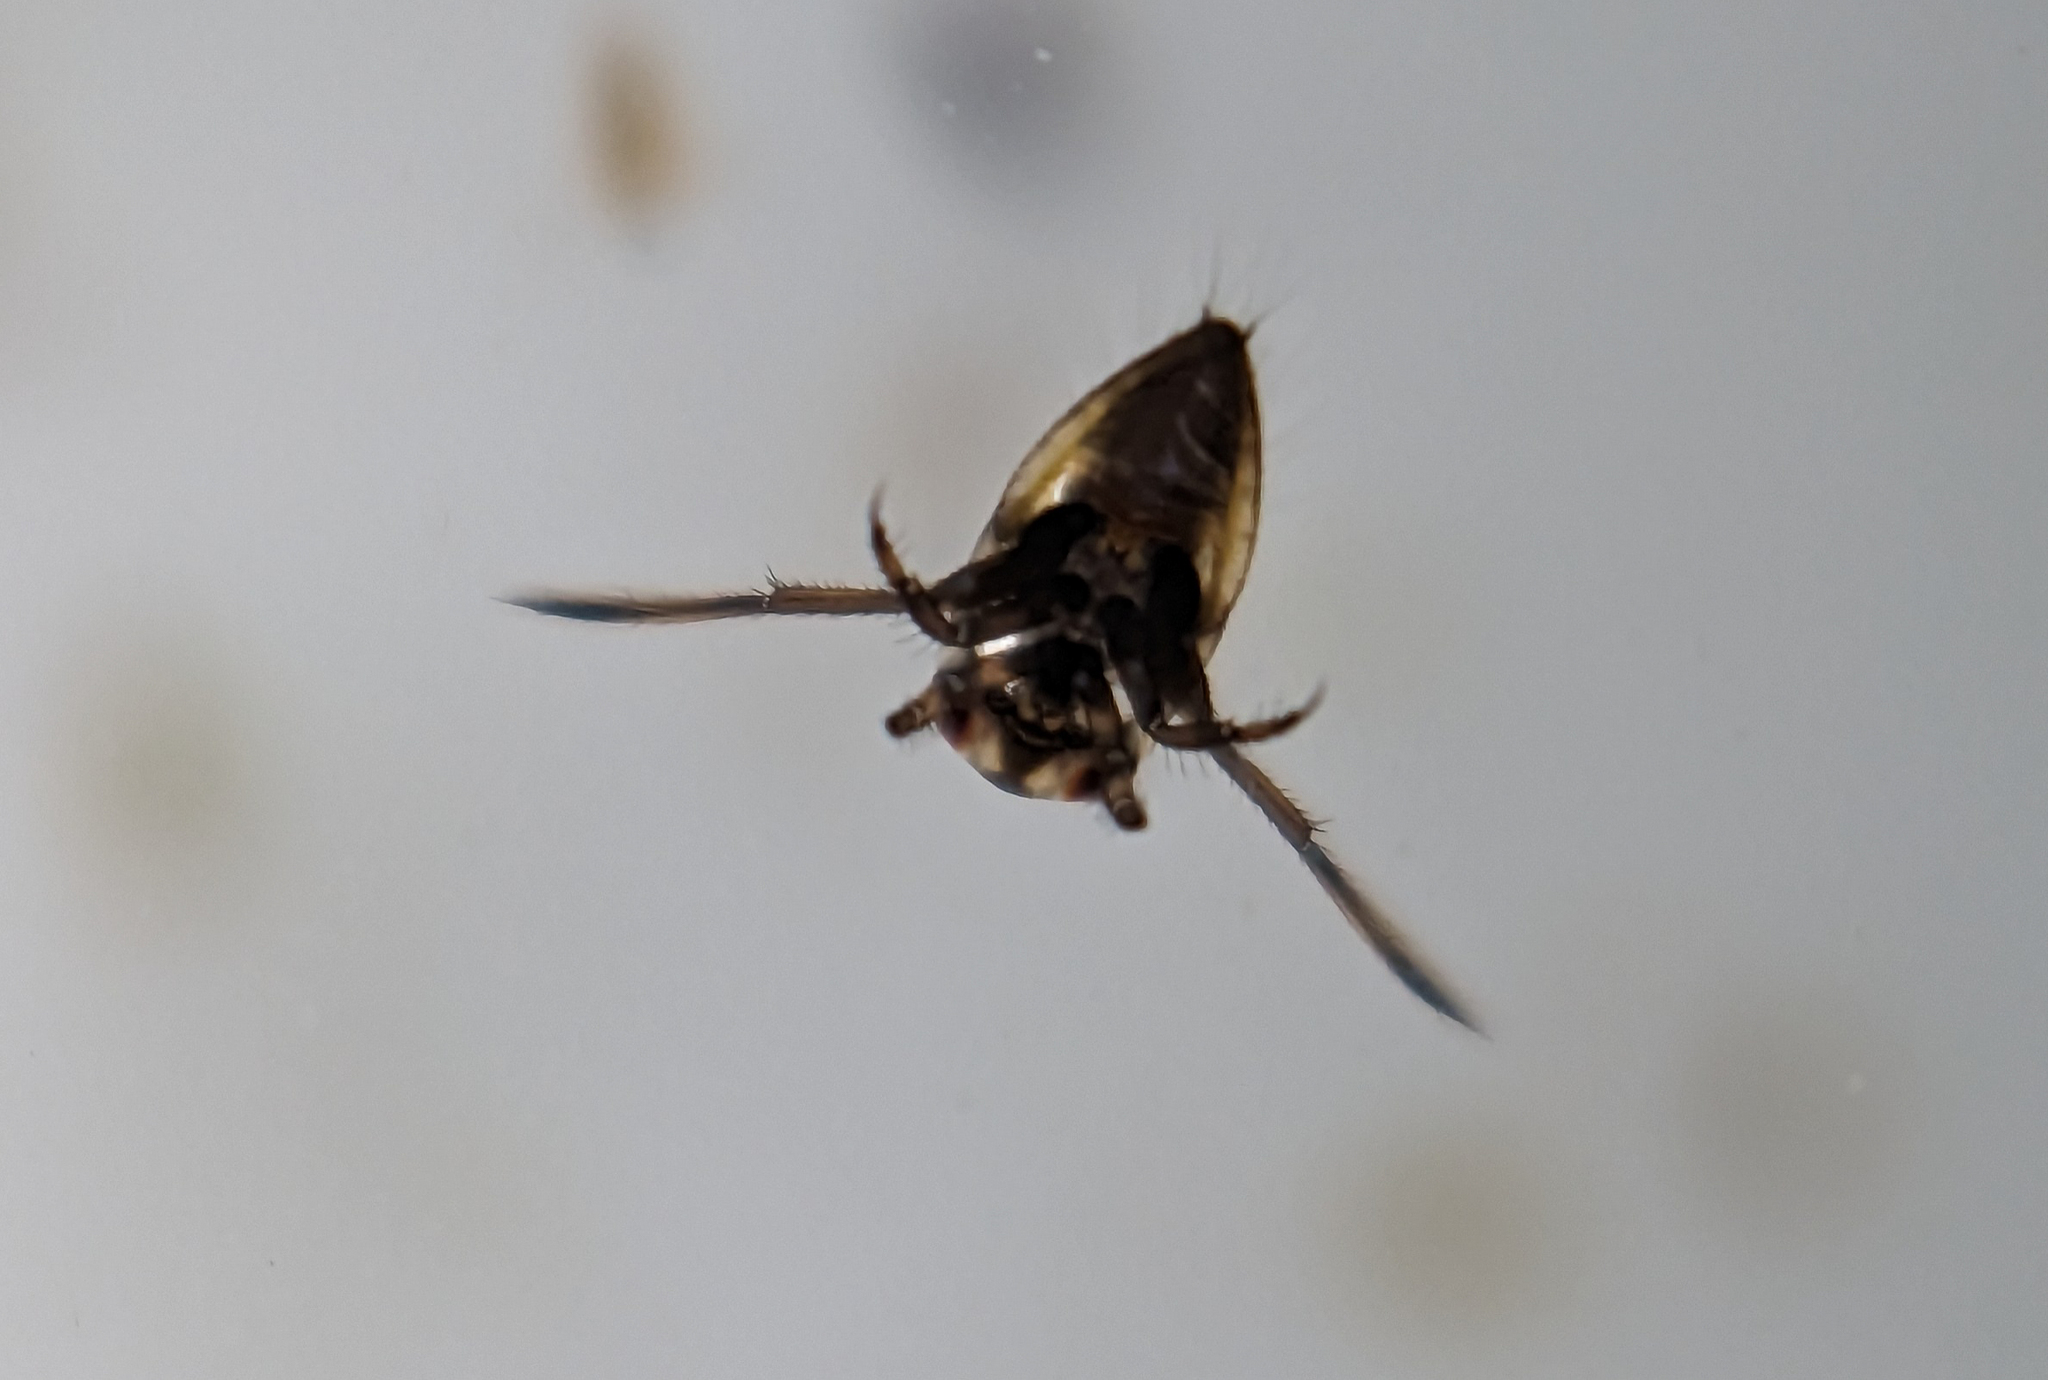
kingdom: Animalia
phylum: Arthropoda
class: Insecta
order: Hemiptera
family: Notonectidae
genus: Notonecta
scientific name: Notonecta
